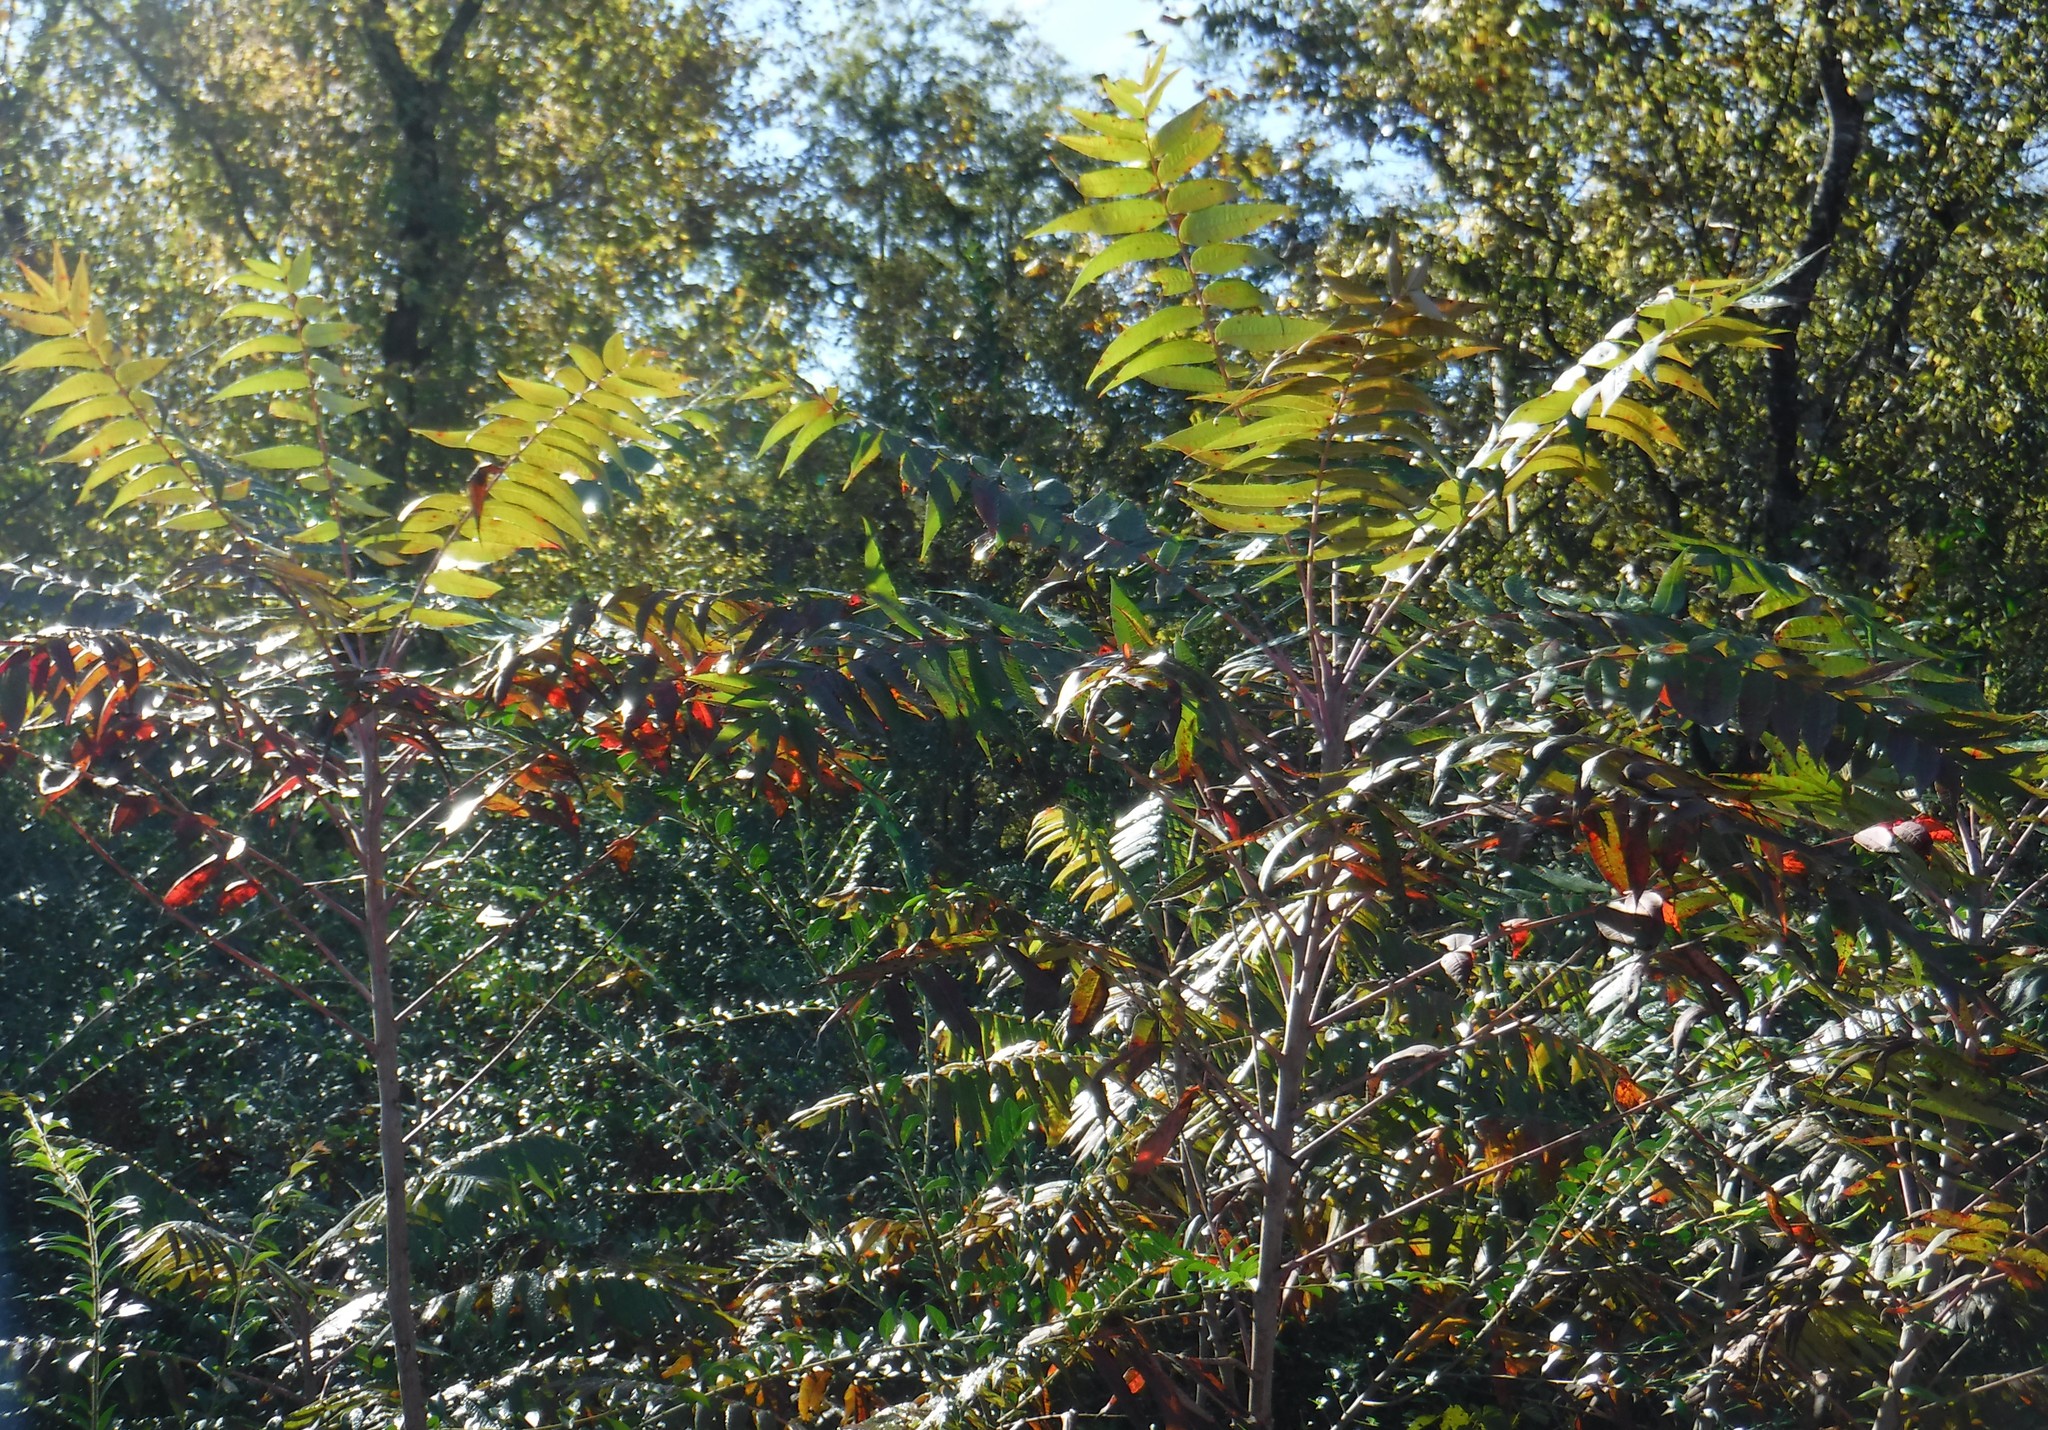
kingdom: Plantae
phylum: Tracheophyta
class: Magnoliopsida
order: Sapindales
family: Anacardiaceae
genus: Rhus
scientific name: Rhus glabra
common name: Scarlet sumac
